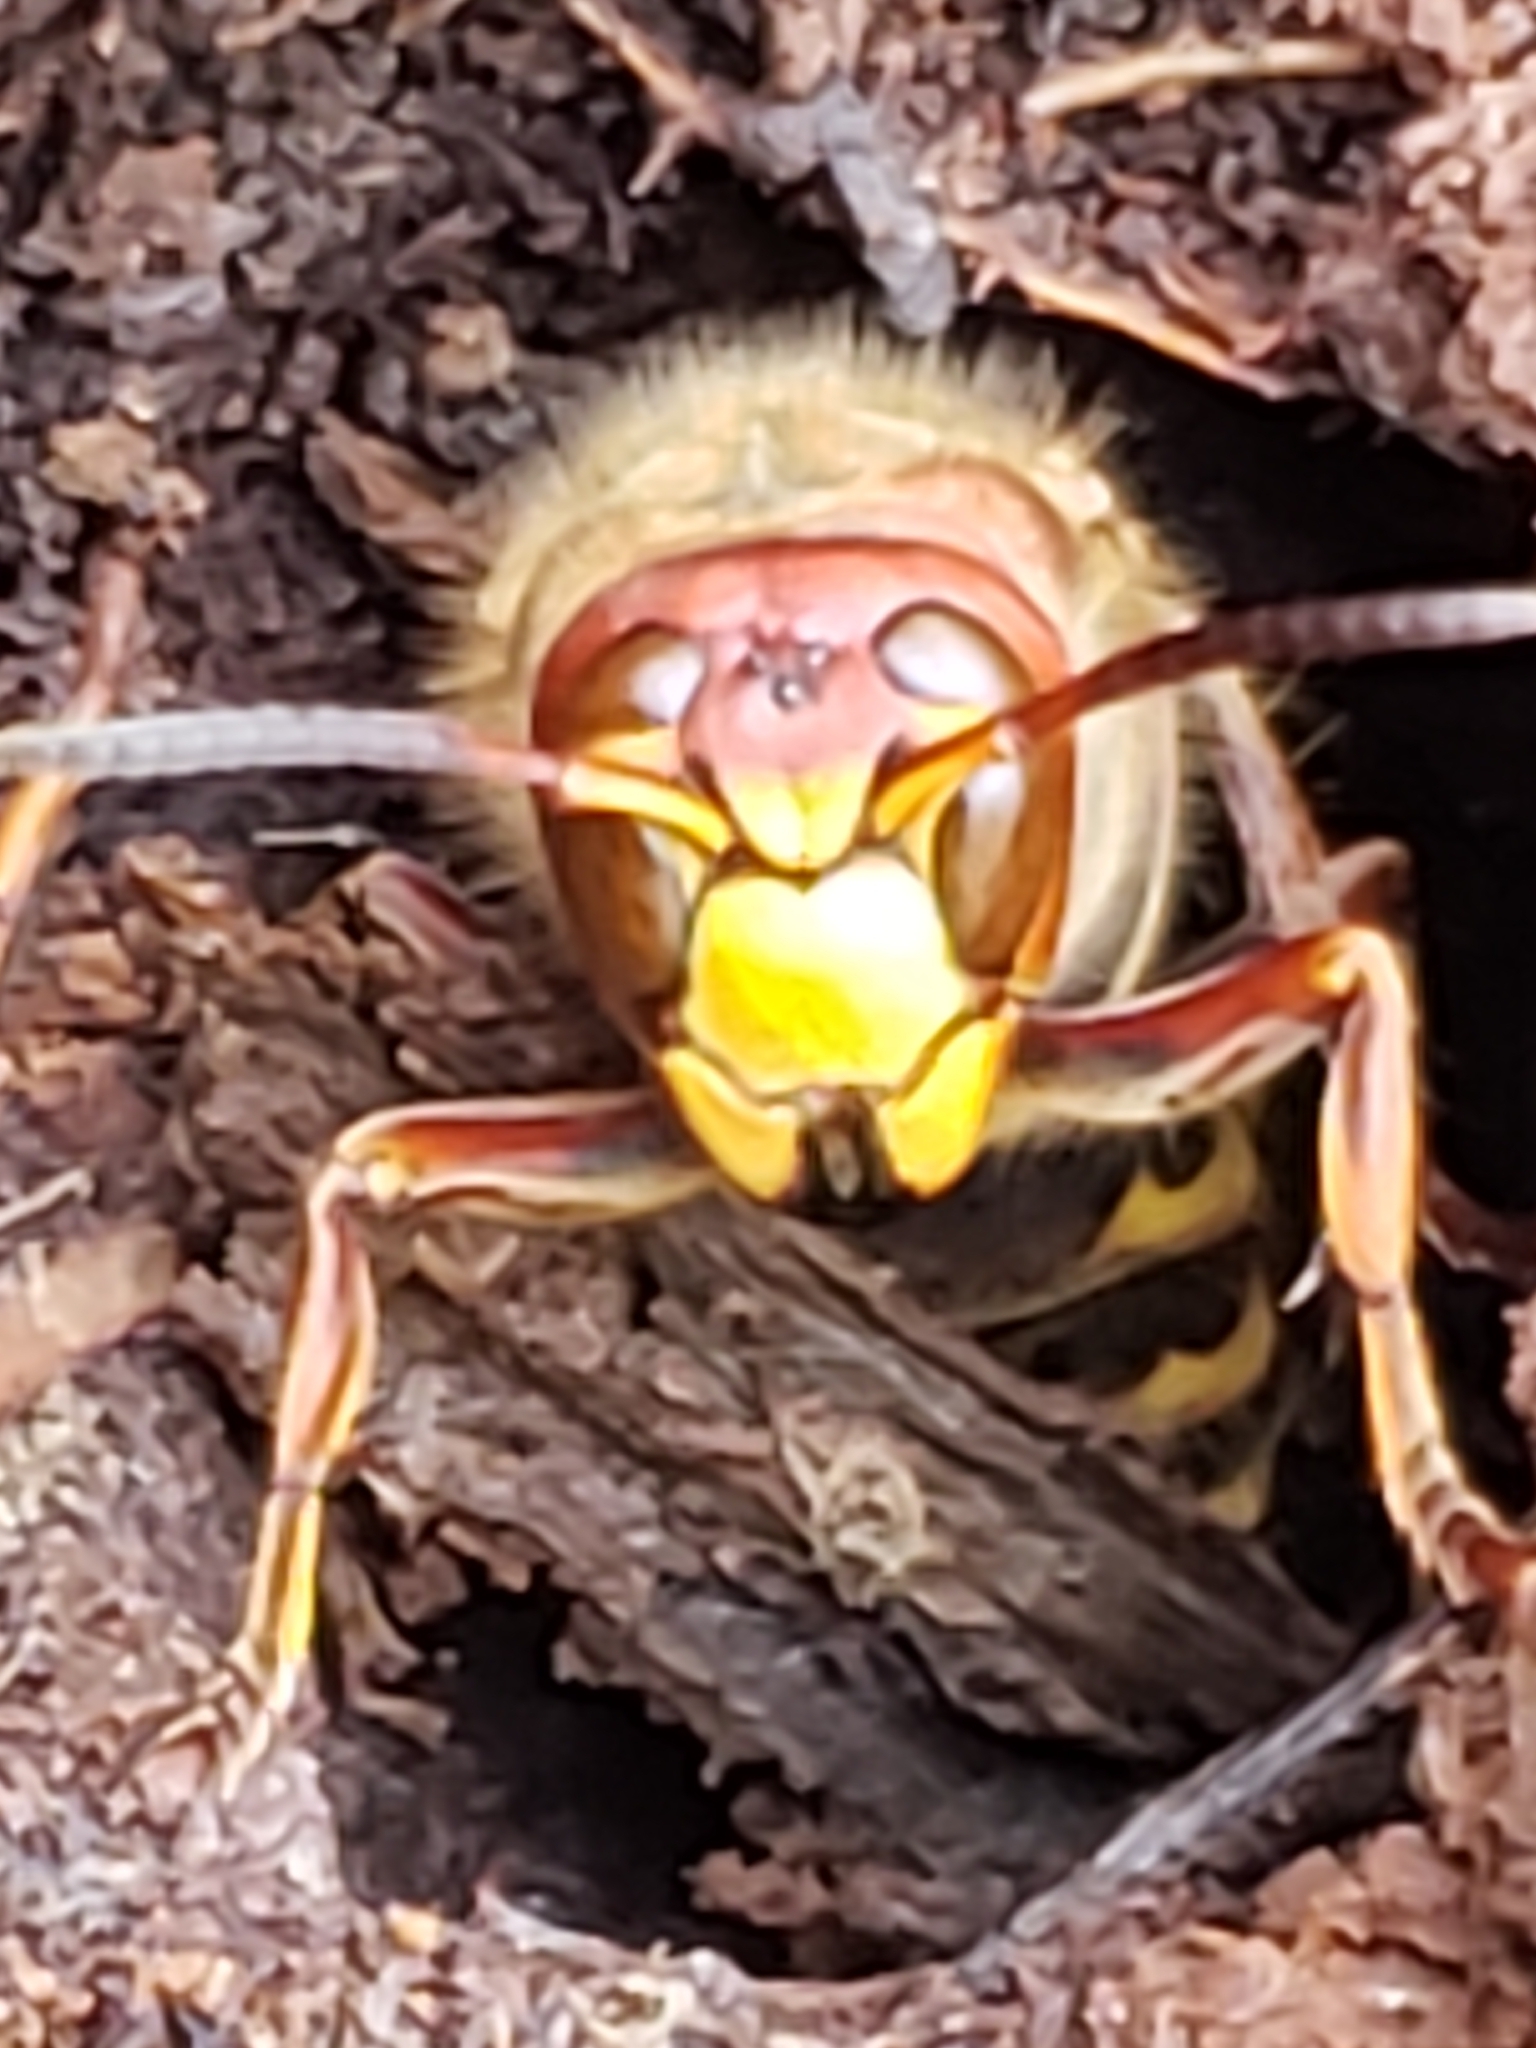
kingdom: Animalia
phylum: Arthropoda
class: Insecta
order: Hymenoptera
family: Vespidae
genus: Vespa
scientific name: Vespa crabro
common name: Hornet
